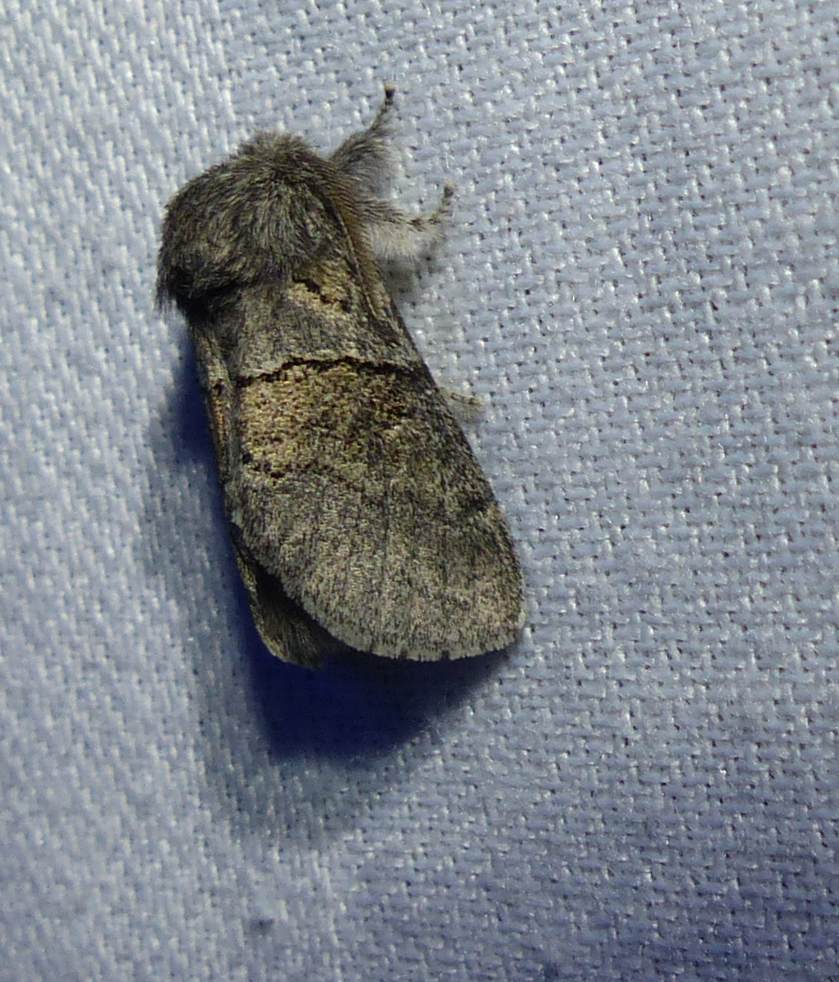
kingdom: Animalia
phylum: Arthropoda
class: Insecta
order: Lepidoptera
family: Notodontidae
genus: Gluphisia
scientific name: Gluphisia septentrionis
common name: Common gluphisia
